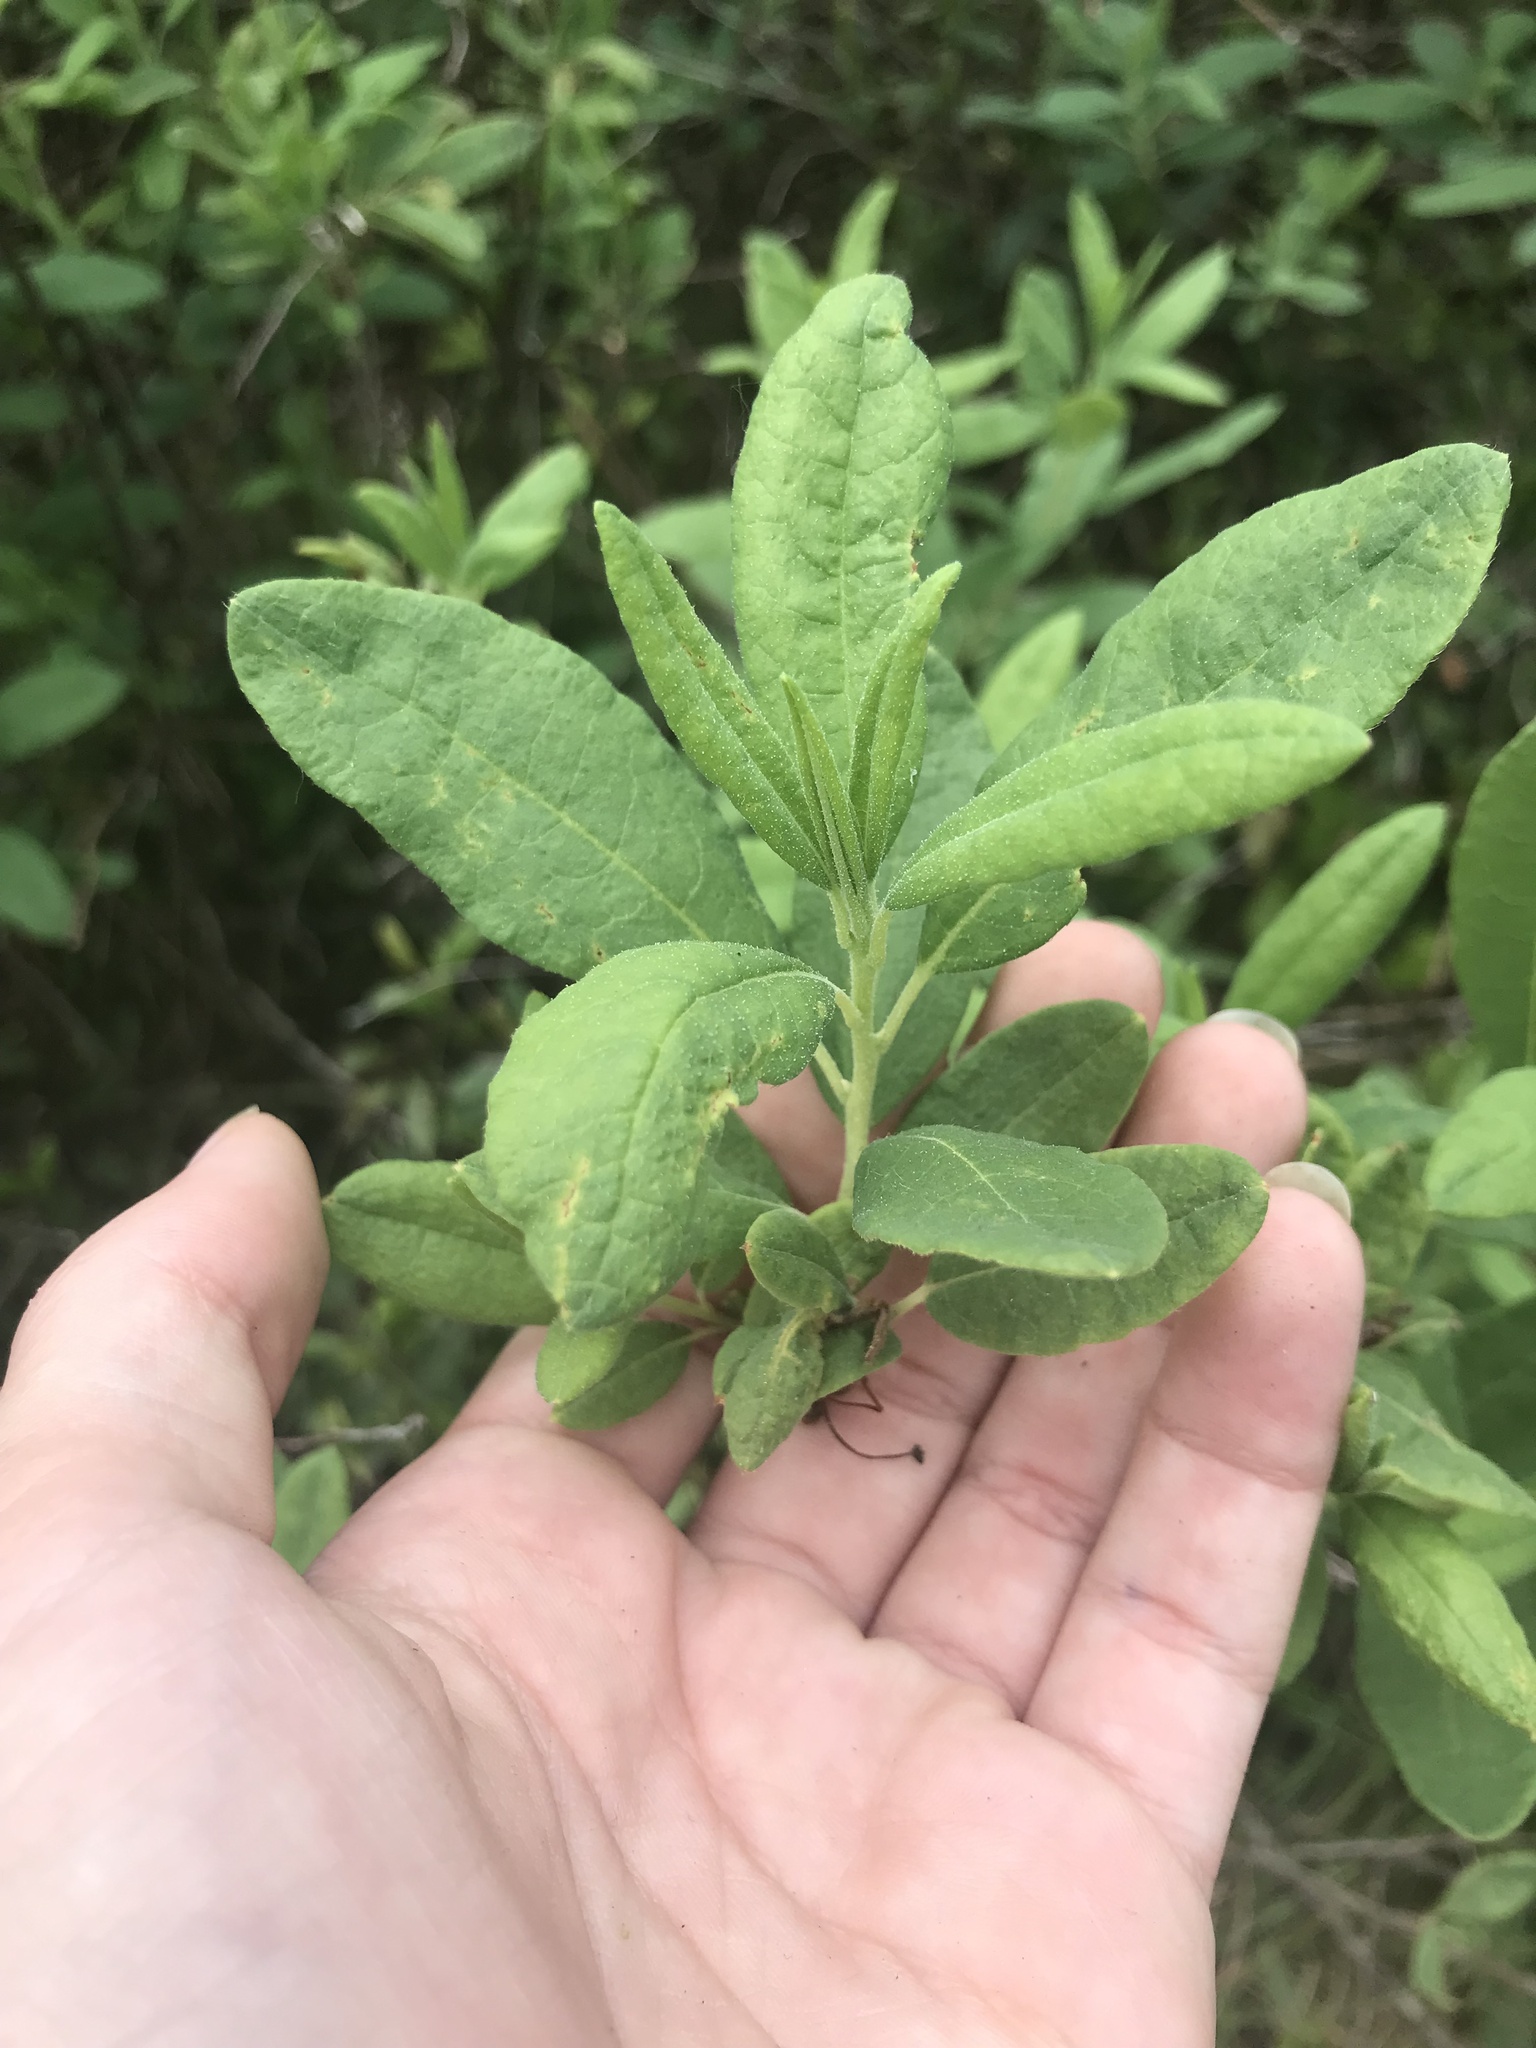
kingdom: Plantae
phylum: Tracheophyta
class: Magnoliopsida
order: Ericales
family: Ericaceae
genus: Rhododendron
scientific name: Rhododendron canadense
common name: Rhodora
